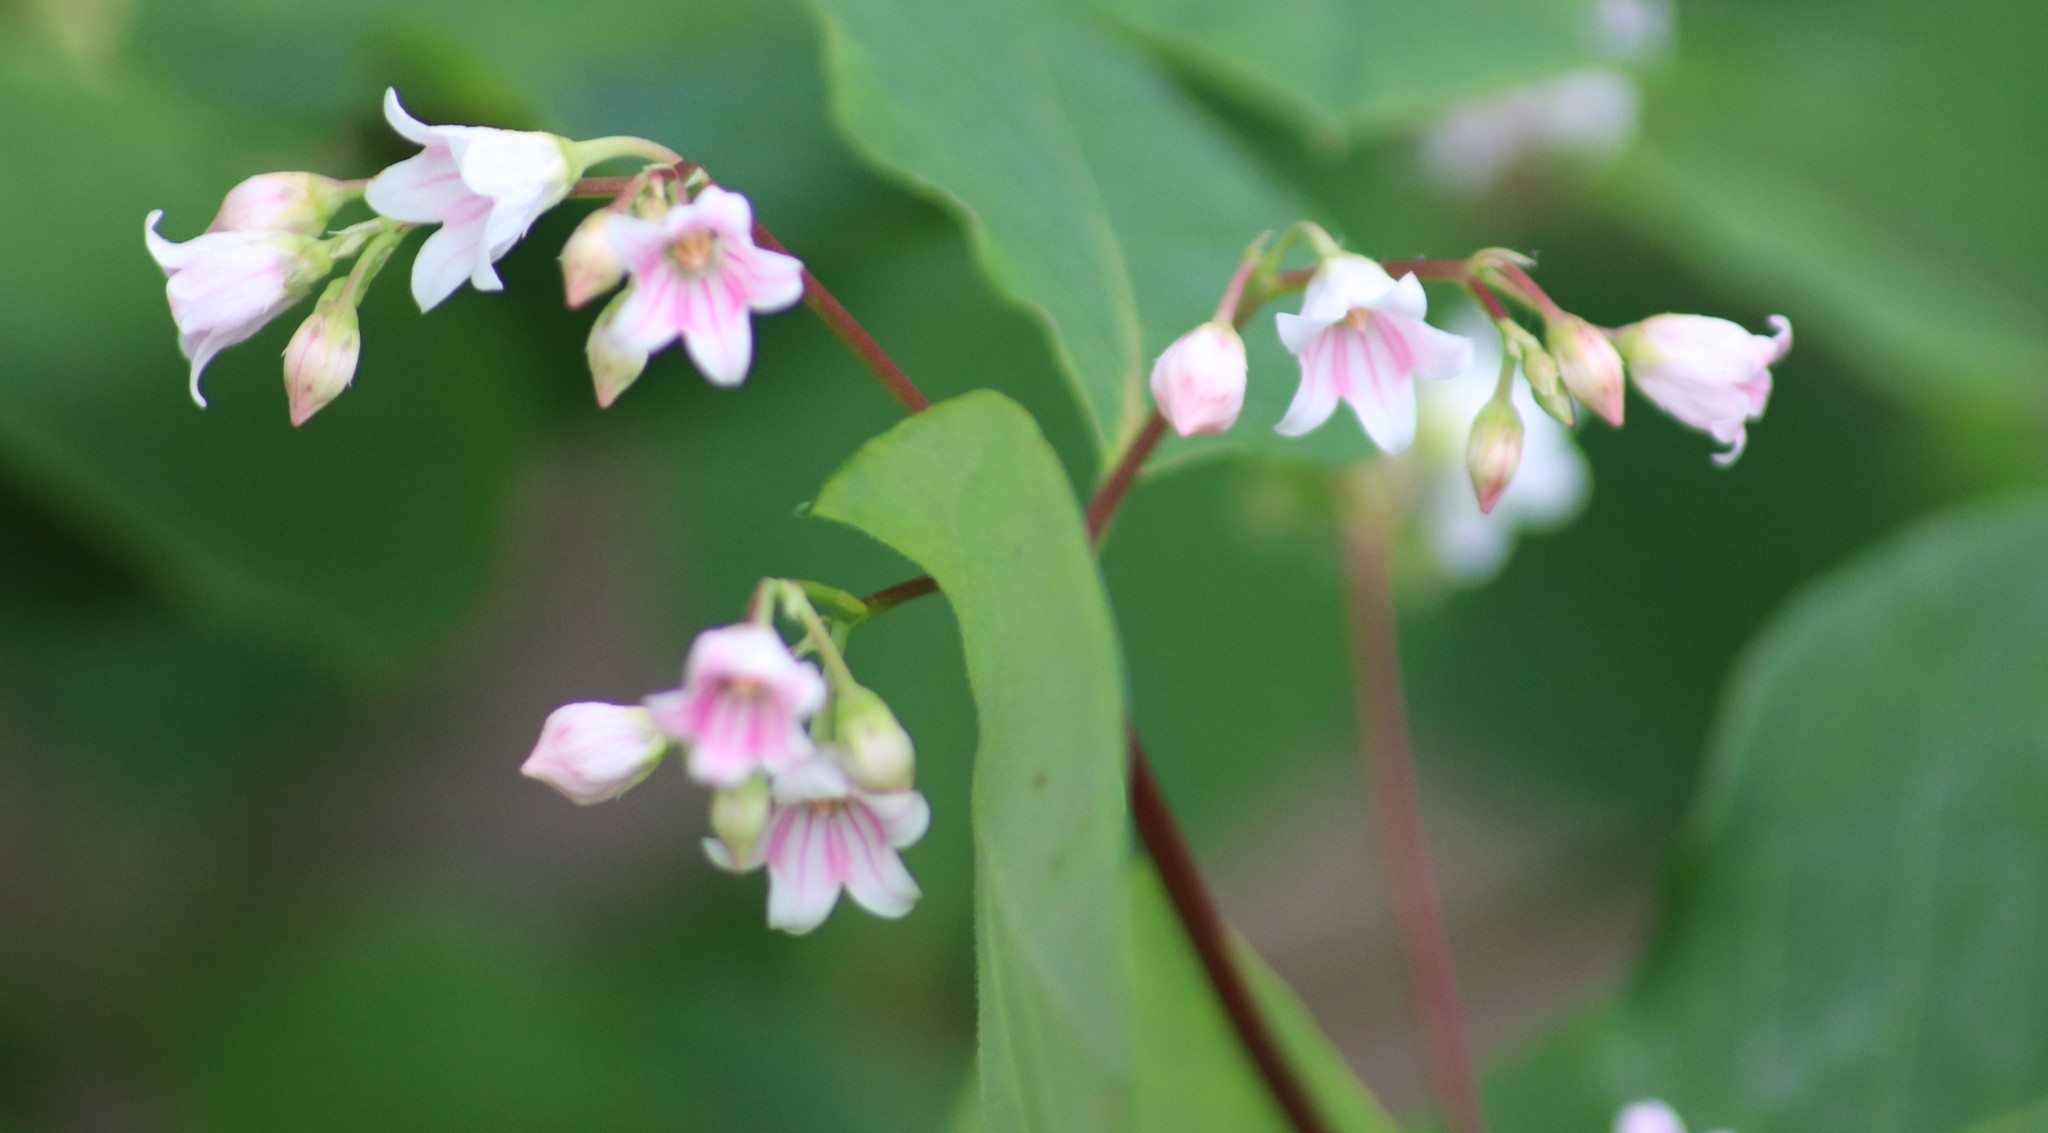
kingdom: Plantae
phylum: Tracheophyta
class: Magnoliopsida
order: Gentianales
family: Apocynaceae
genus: Apocynum
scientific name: Apocynum androsaemifolium
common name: Spreading dogbane
